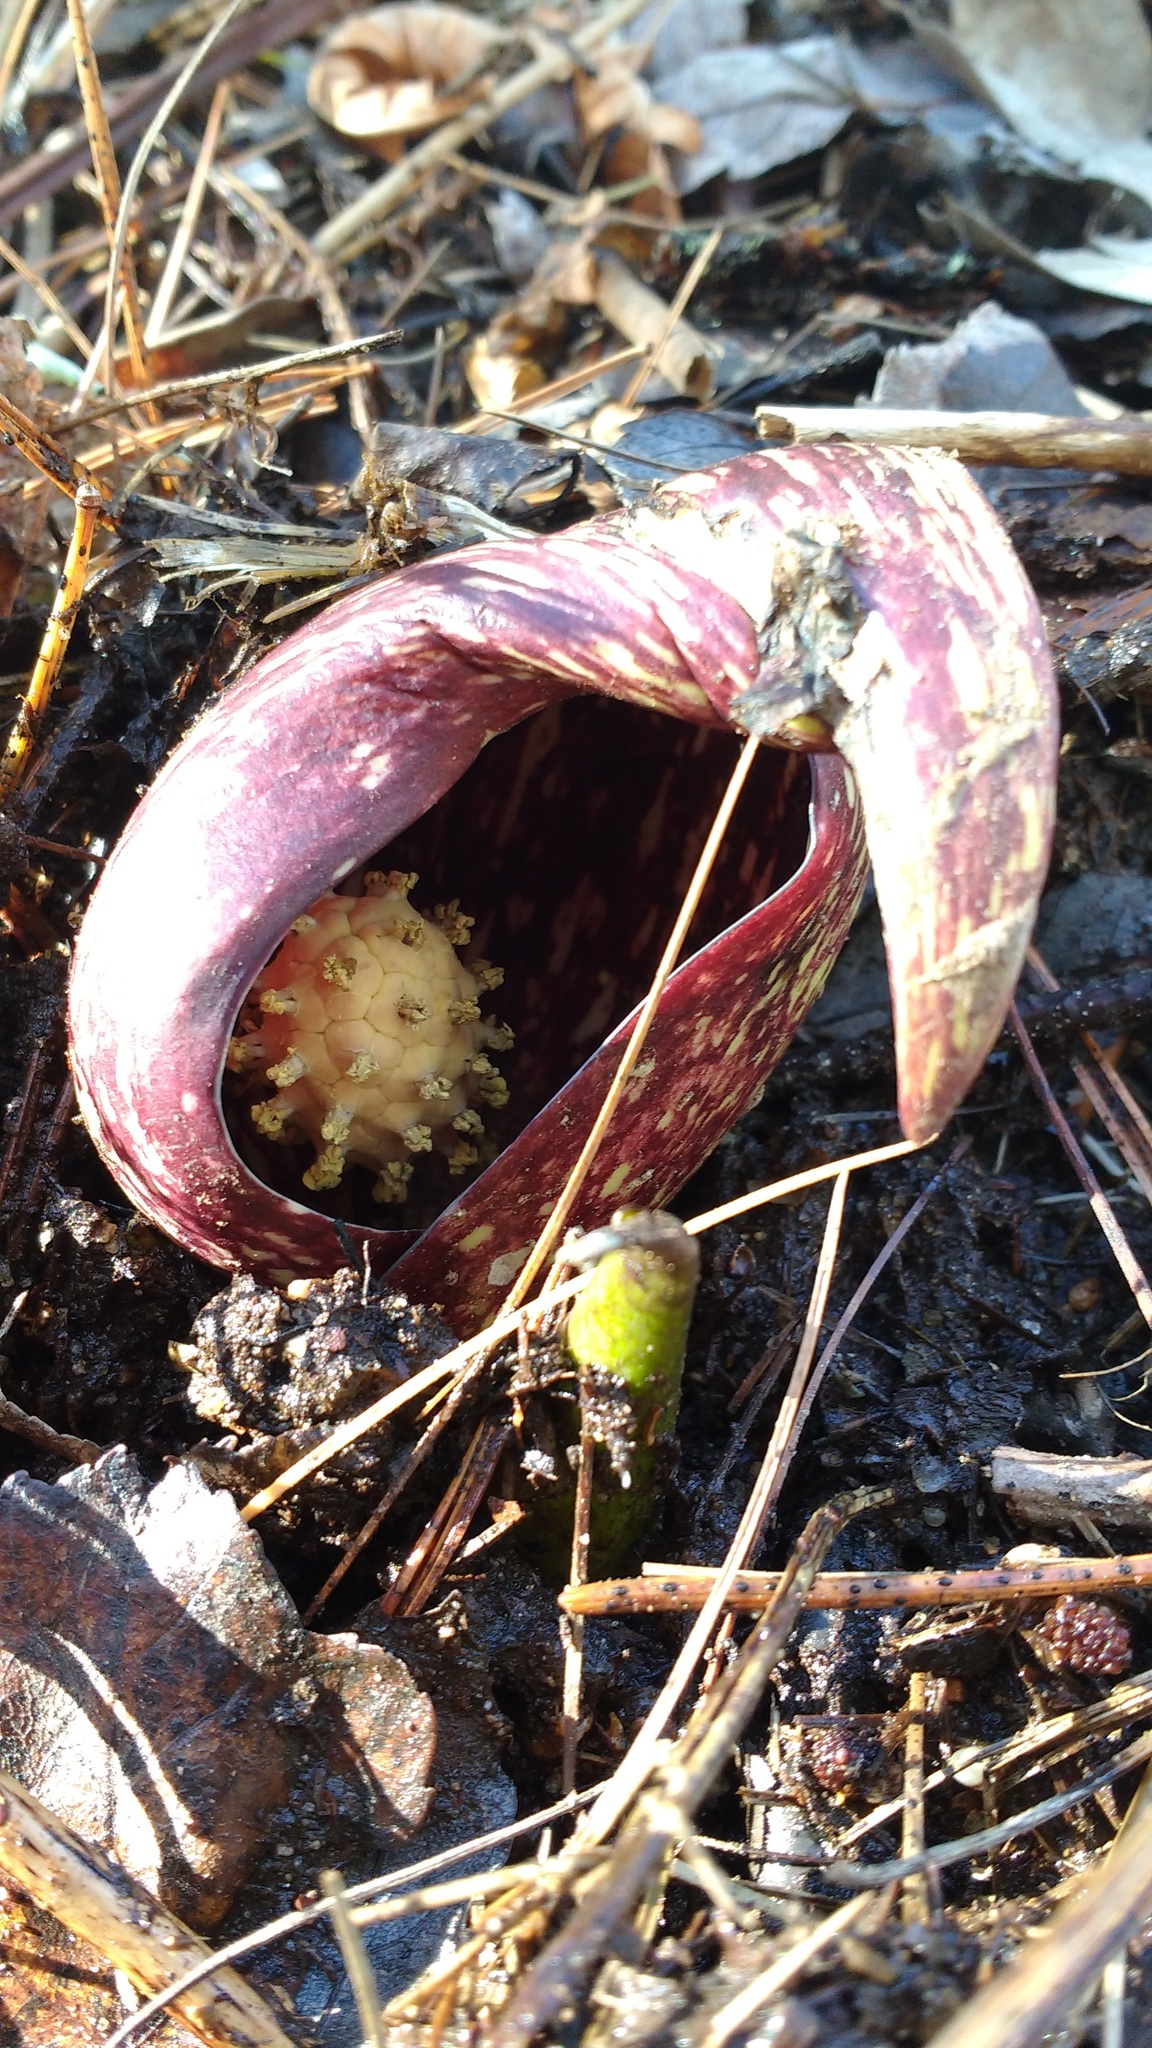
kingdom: Plantae
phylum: Tracheophyta
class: Liliopsida
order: Alismatales
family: Araceae
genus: Symplocarpus
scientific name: Symplocarpus foetidus
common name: Eastern skunk cabbage
